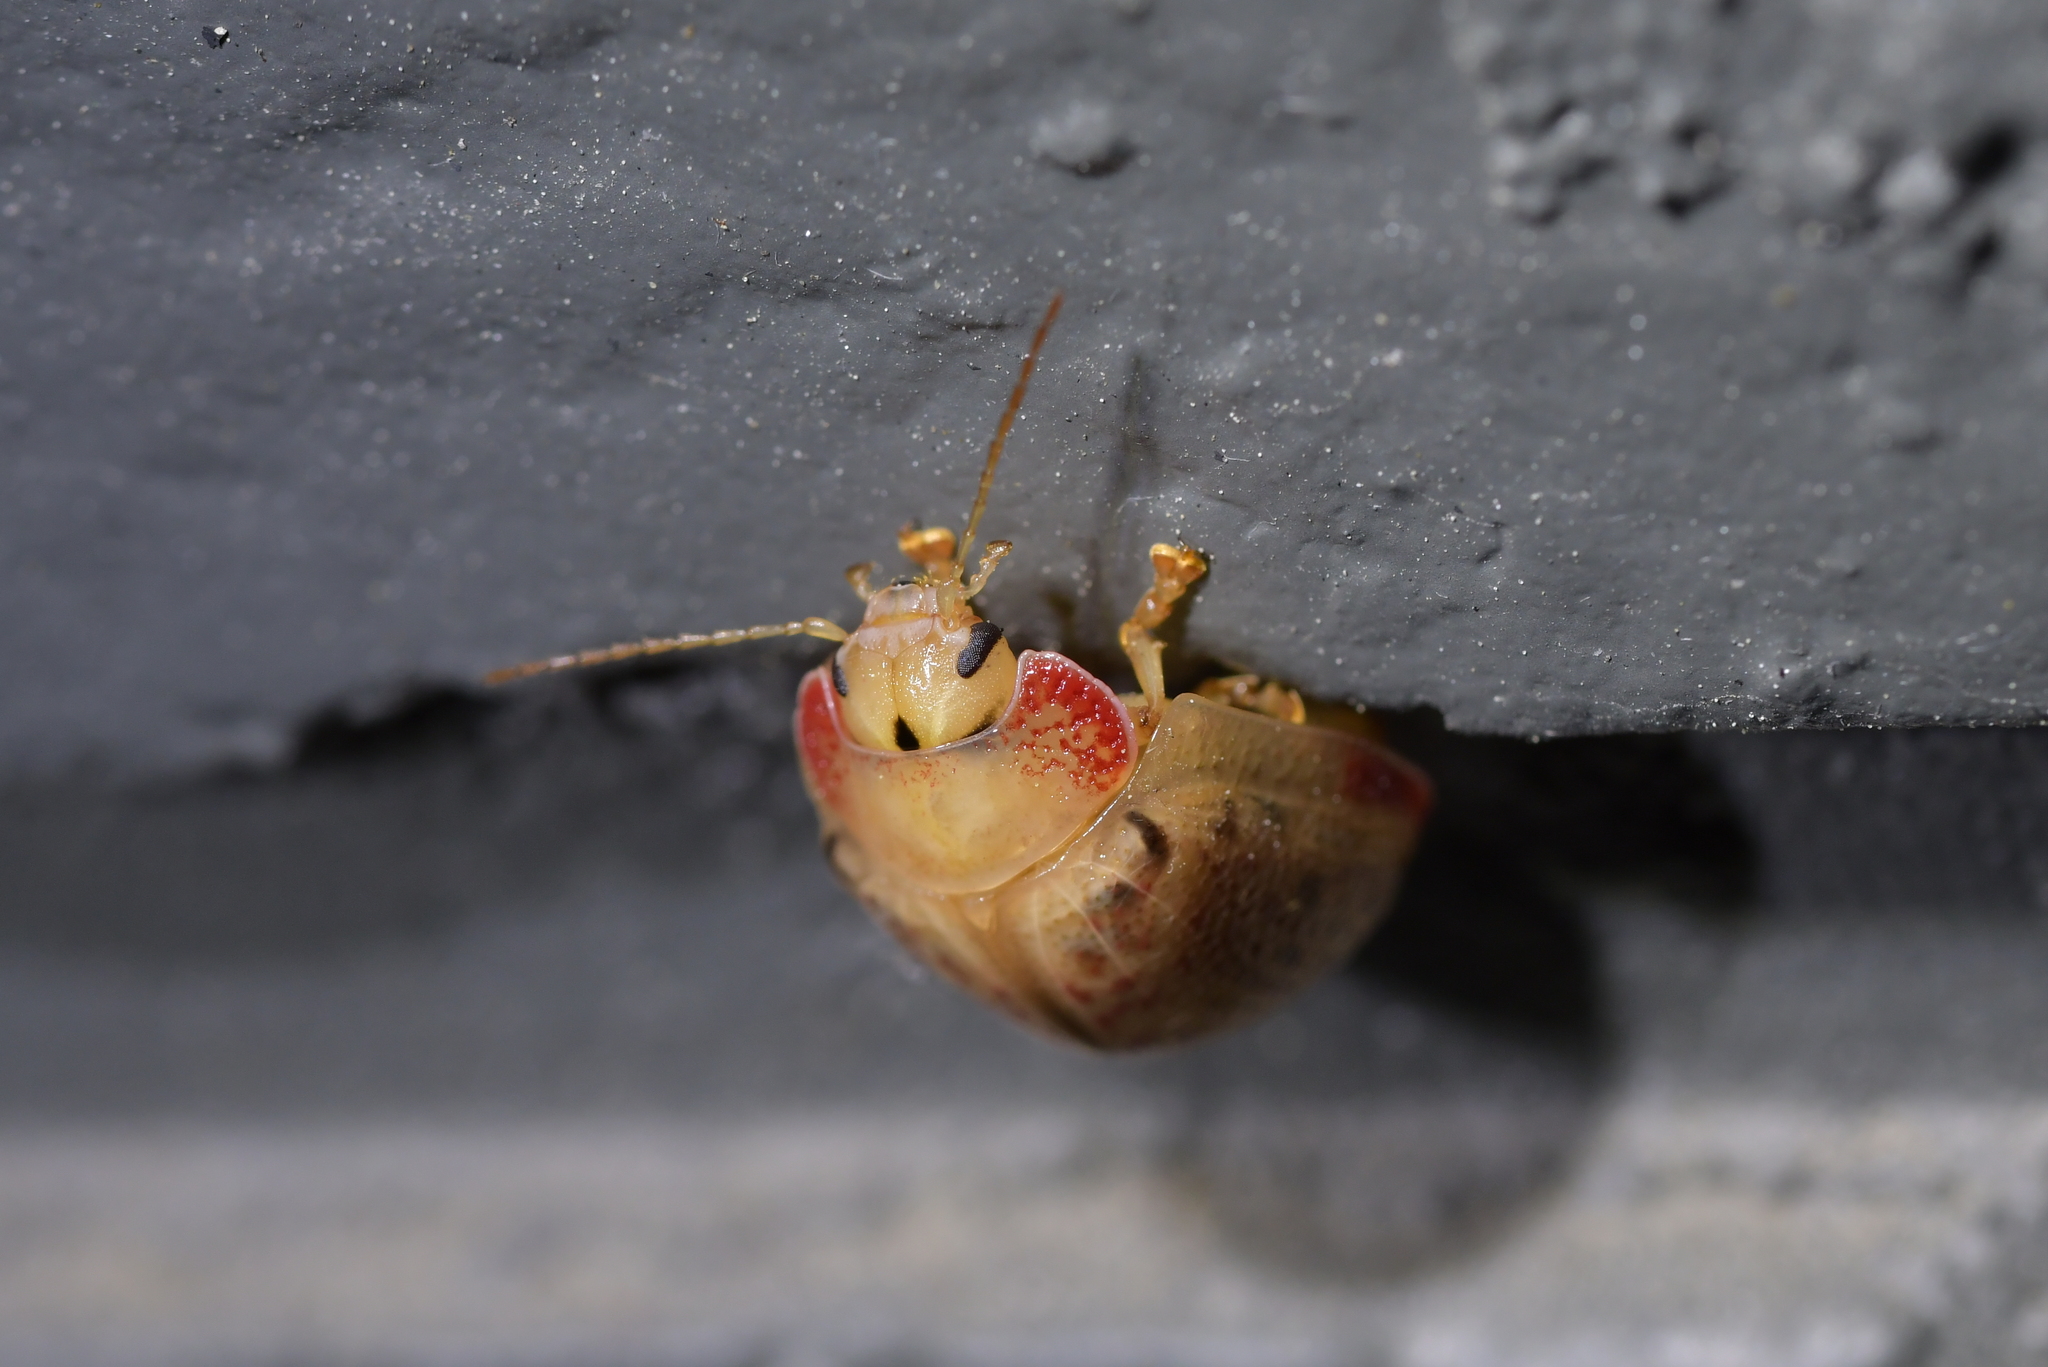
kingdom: Animalia
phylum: Arthropoda
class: Insecta
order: Coleoptera
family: Chrysomelidae
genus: Paropsis
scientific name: Paropsis charybdis
